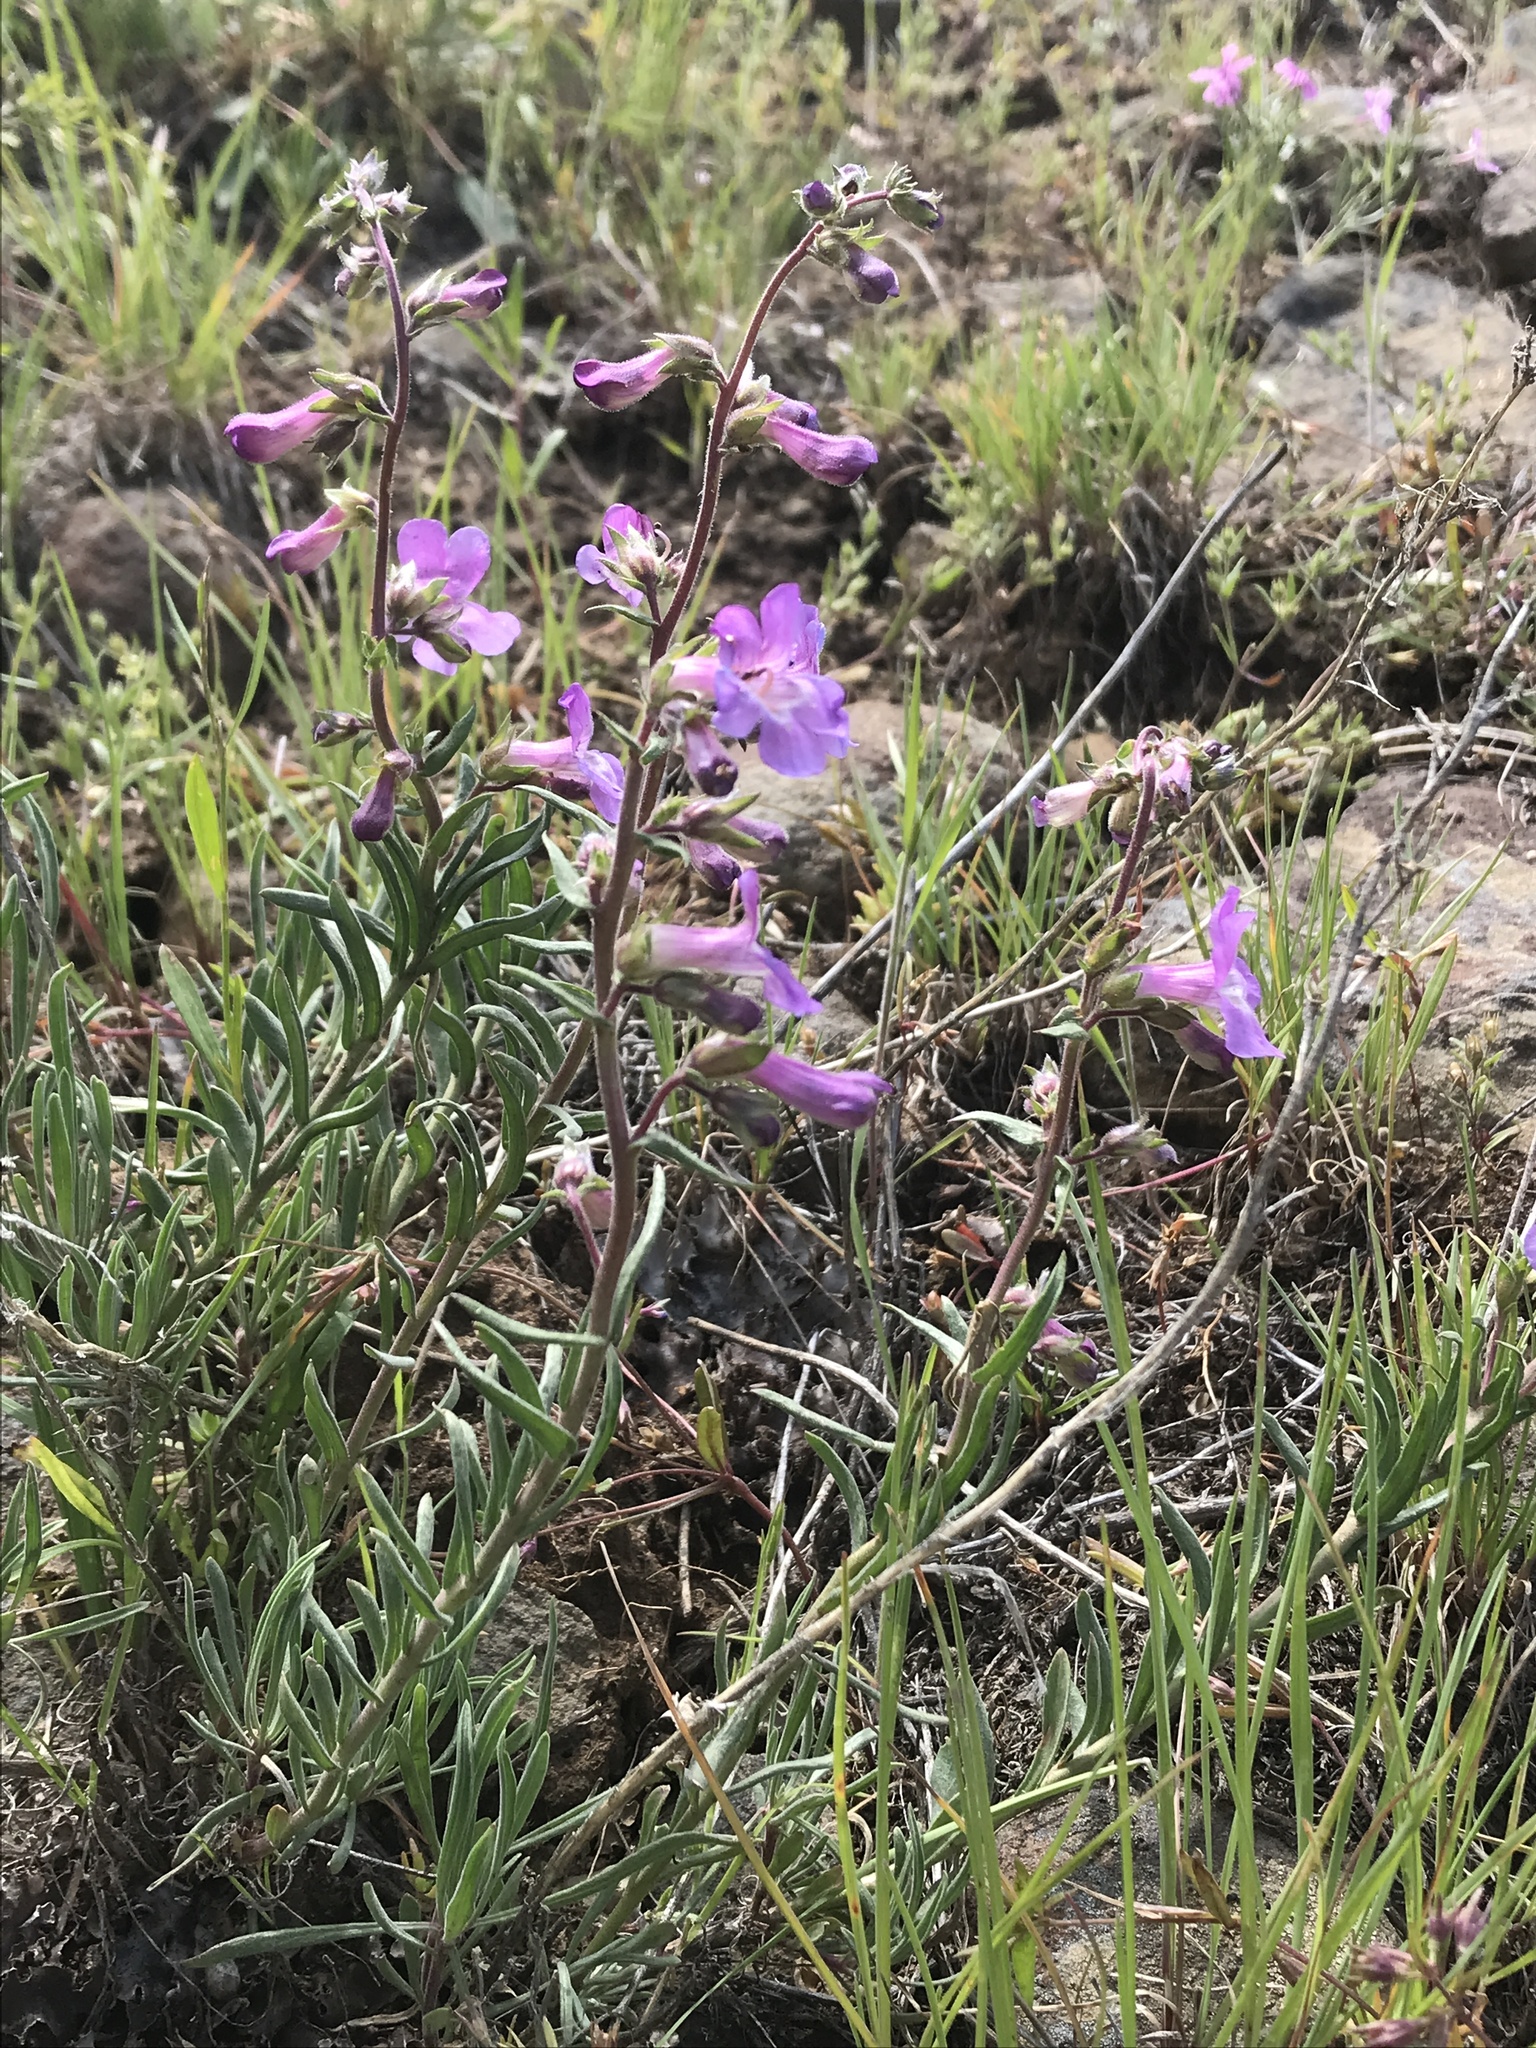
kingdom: Plantae
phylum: Tracheophyta
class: Magnoliopsida
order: Lamiales
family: Plantaginaceae
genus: Penstemon
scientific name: Penstemon gairdneri
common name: Gairdner's penstemon
